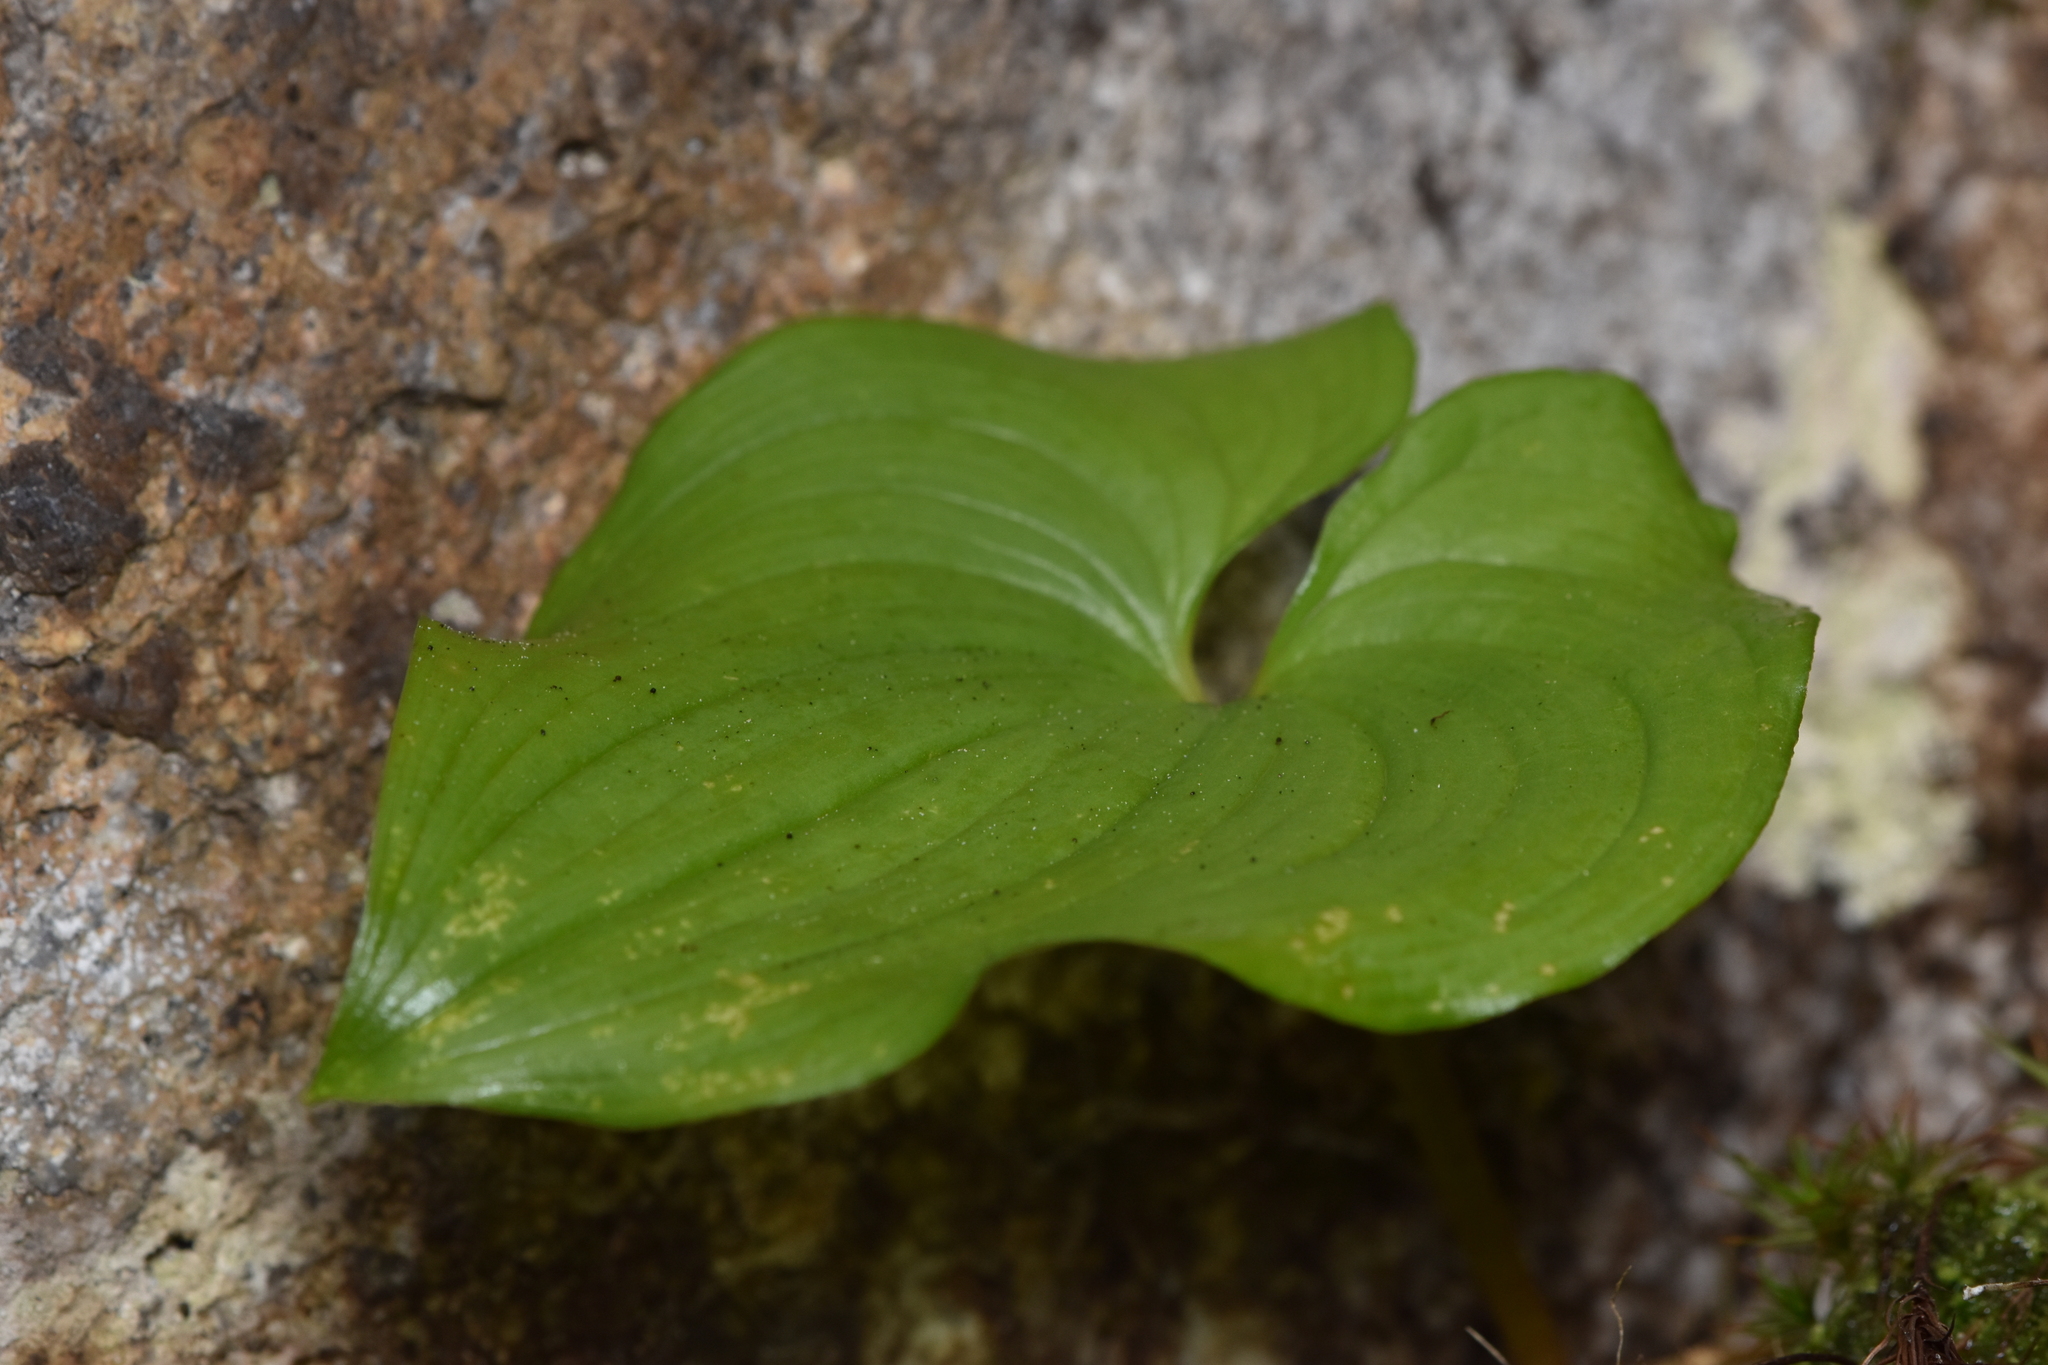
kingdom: Plantae
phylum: Tracheophyta
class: Liliopsida
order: Asparagales
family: Asparagaceae
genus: Maianthemum
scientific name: Maianthemum dilatatum
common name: False lily-of-the-valley
